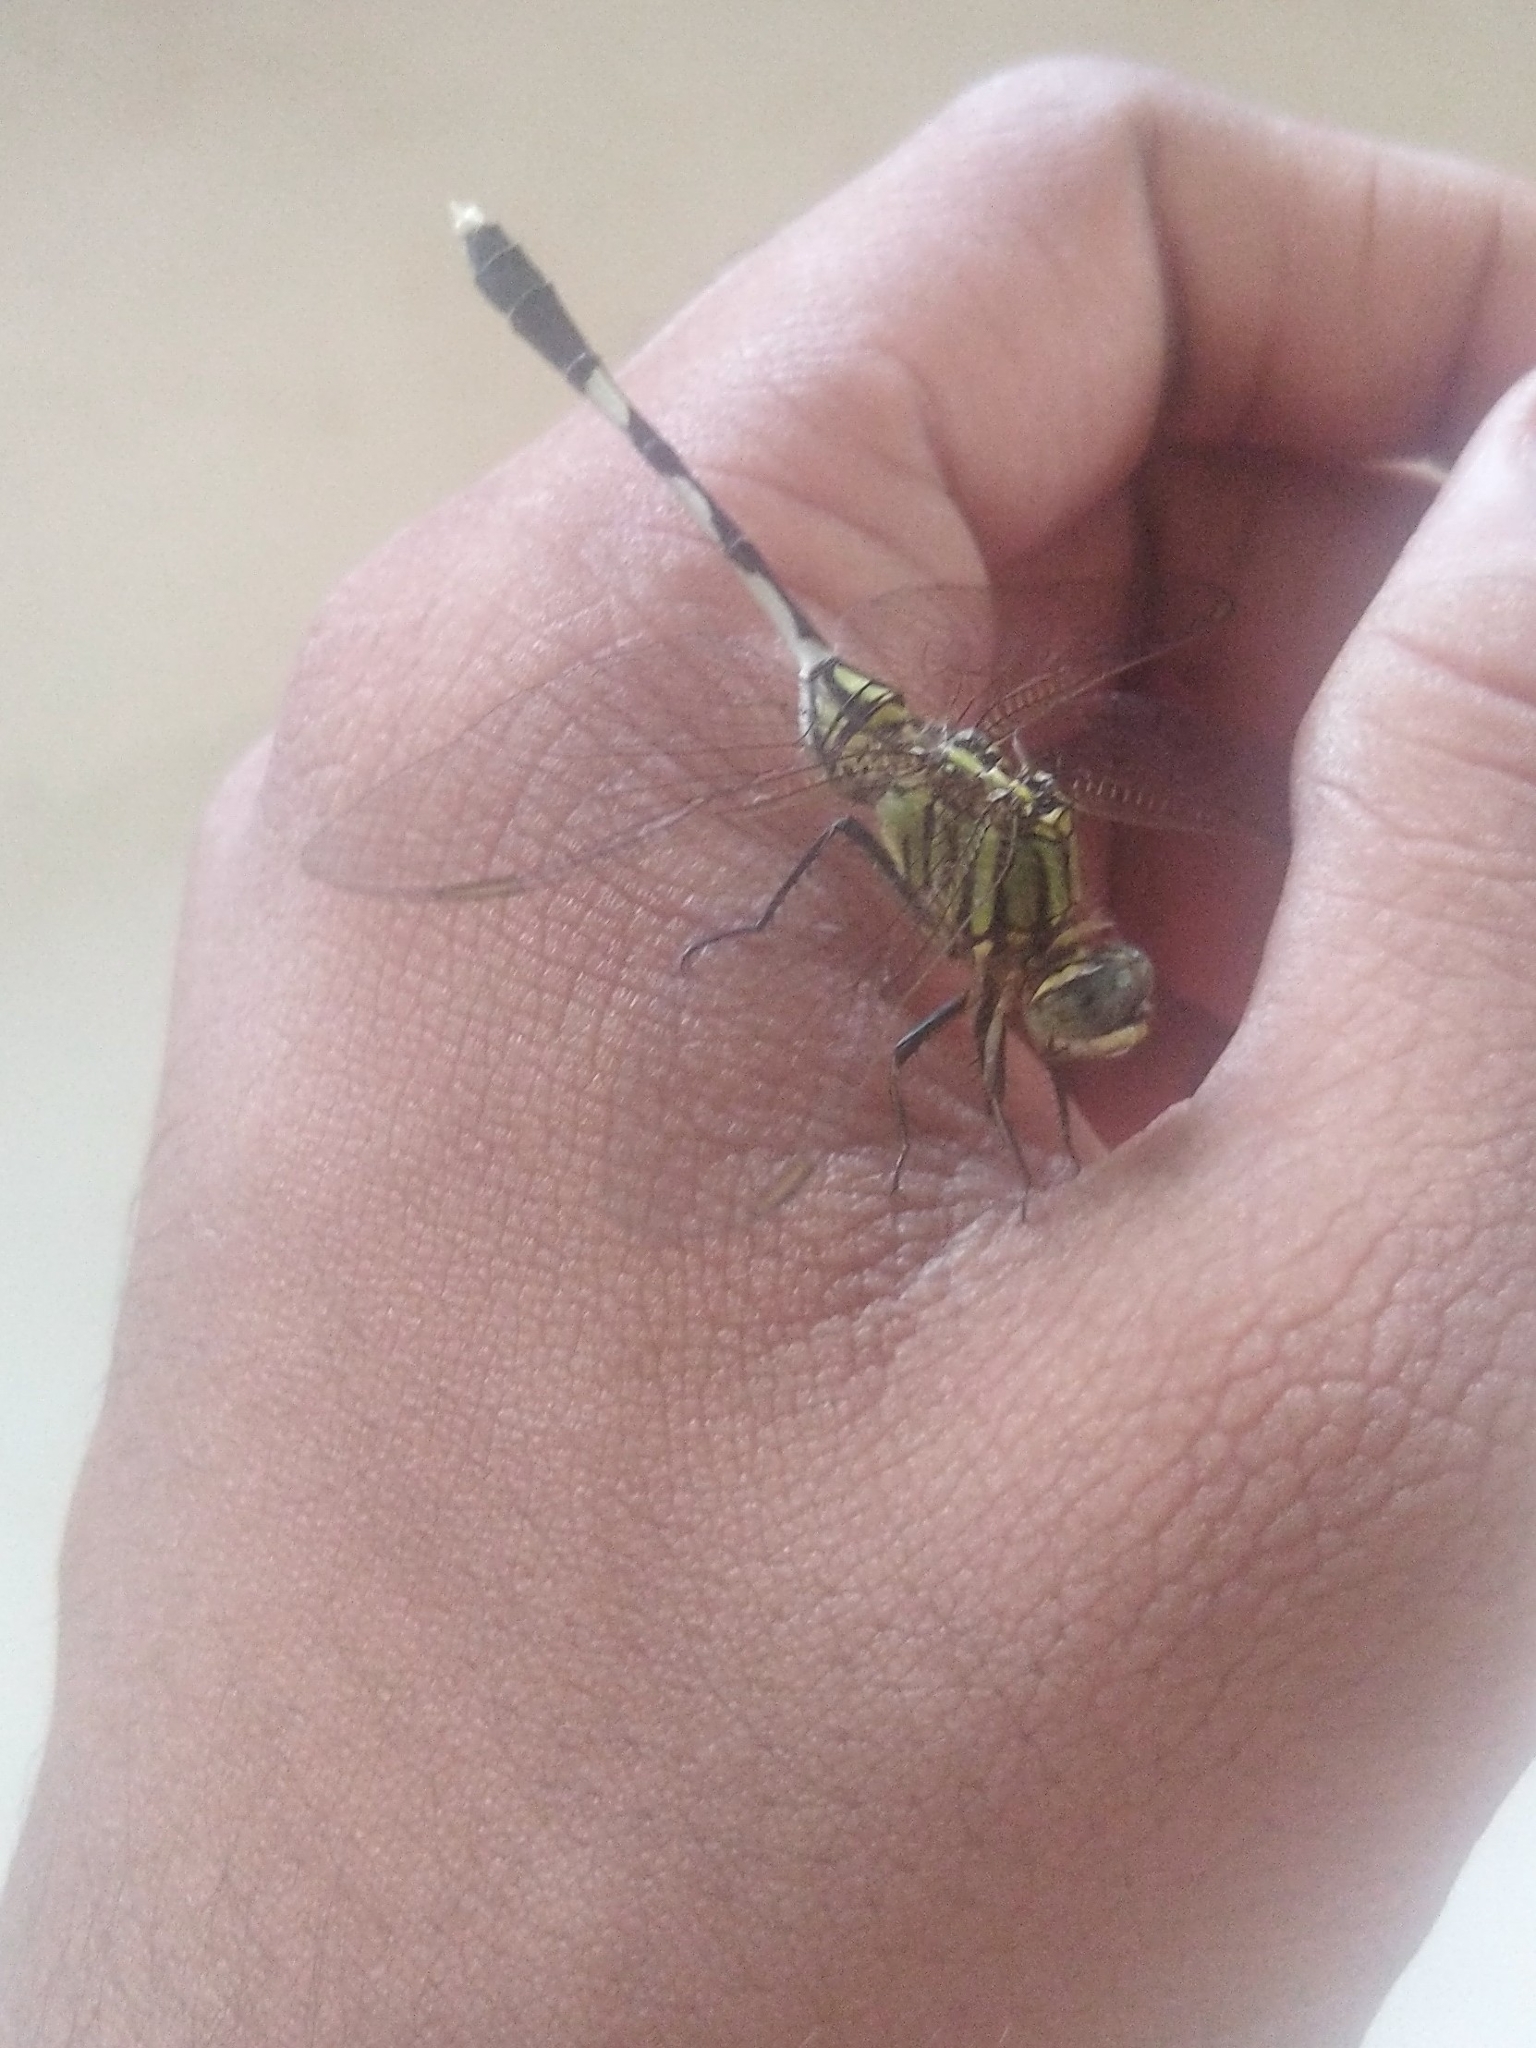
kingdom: Animalia
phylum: Arthropoda
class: Insecta
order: Odonata
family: Libellulidae
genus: Orthetrum
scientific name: Orthetrum sabina
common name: Slender skimmer
